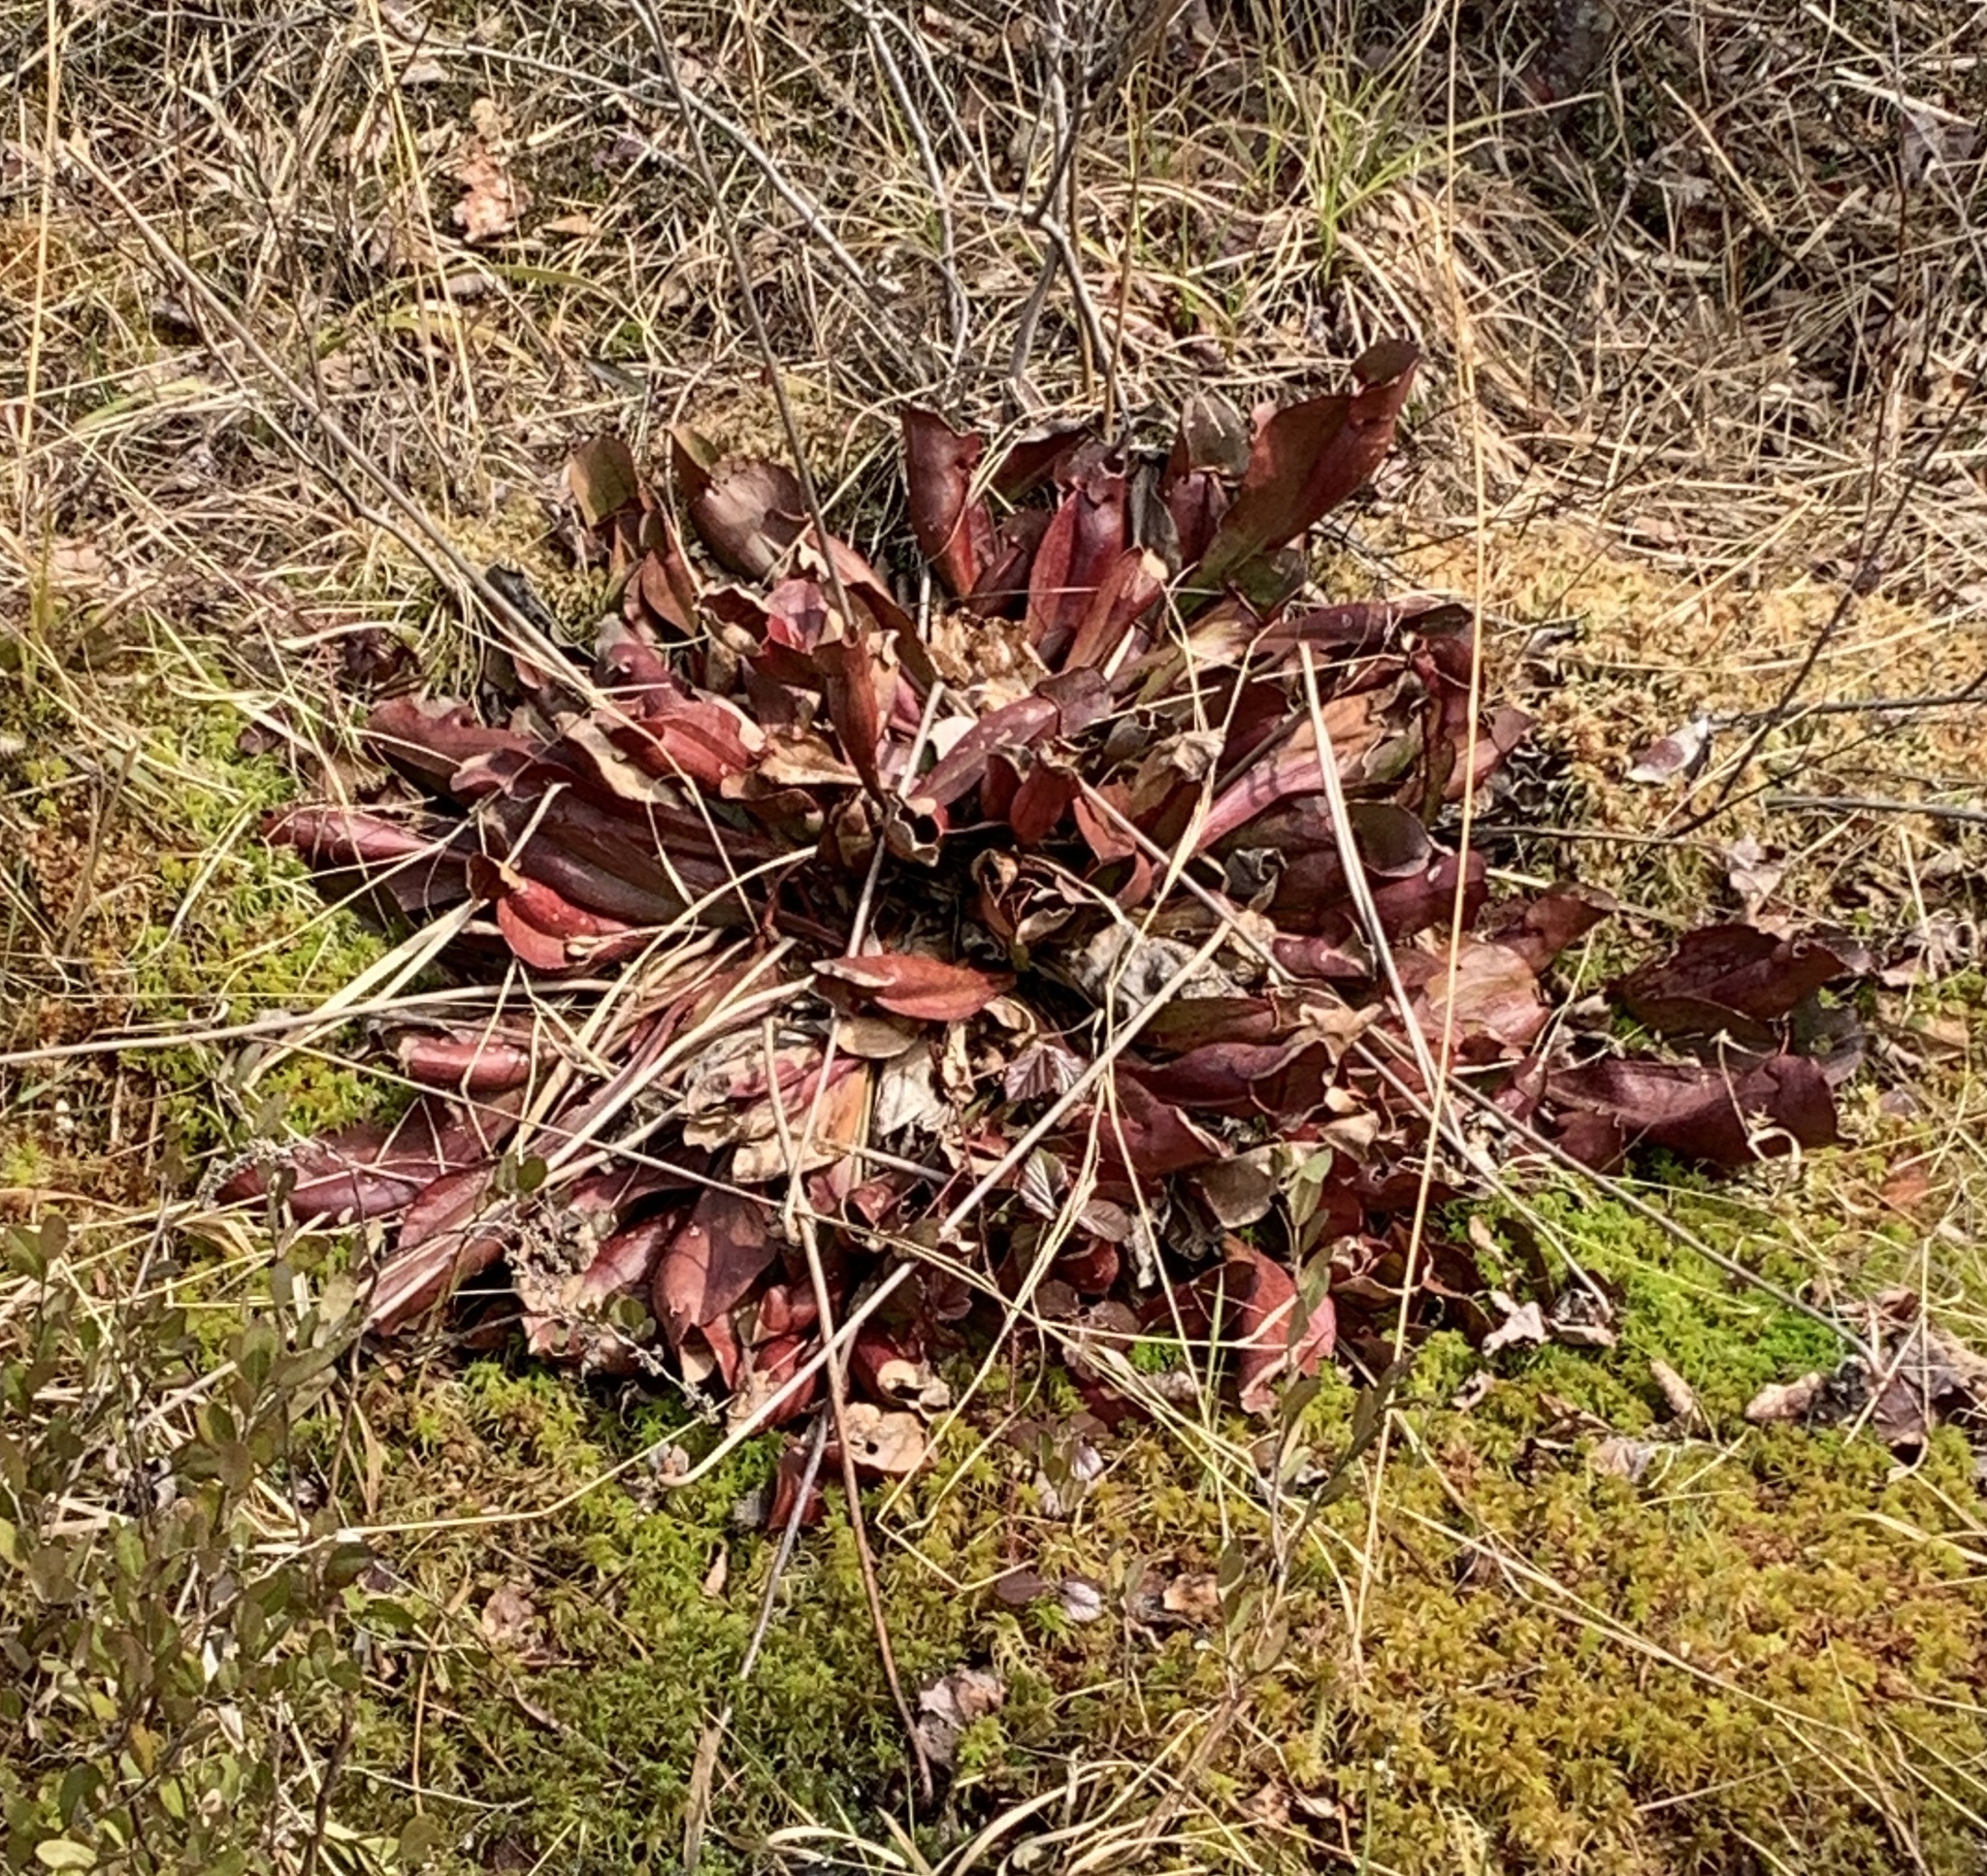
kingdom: Plantae
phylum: Tracheophyta
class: Magnoliopsida
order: Ericales
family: Sarraceniaceae
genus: Sarracenia
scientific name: Sarracenia purpurea
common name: Pitcherplant
